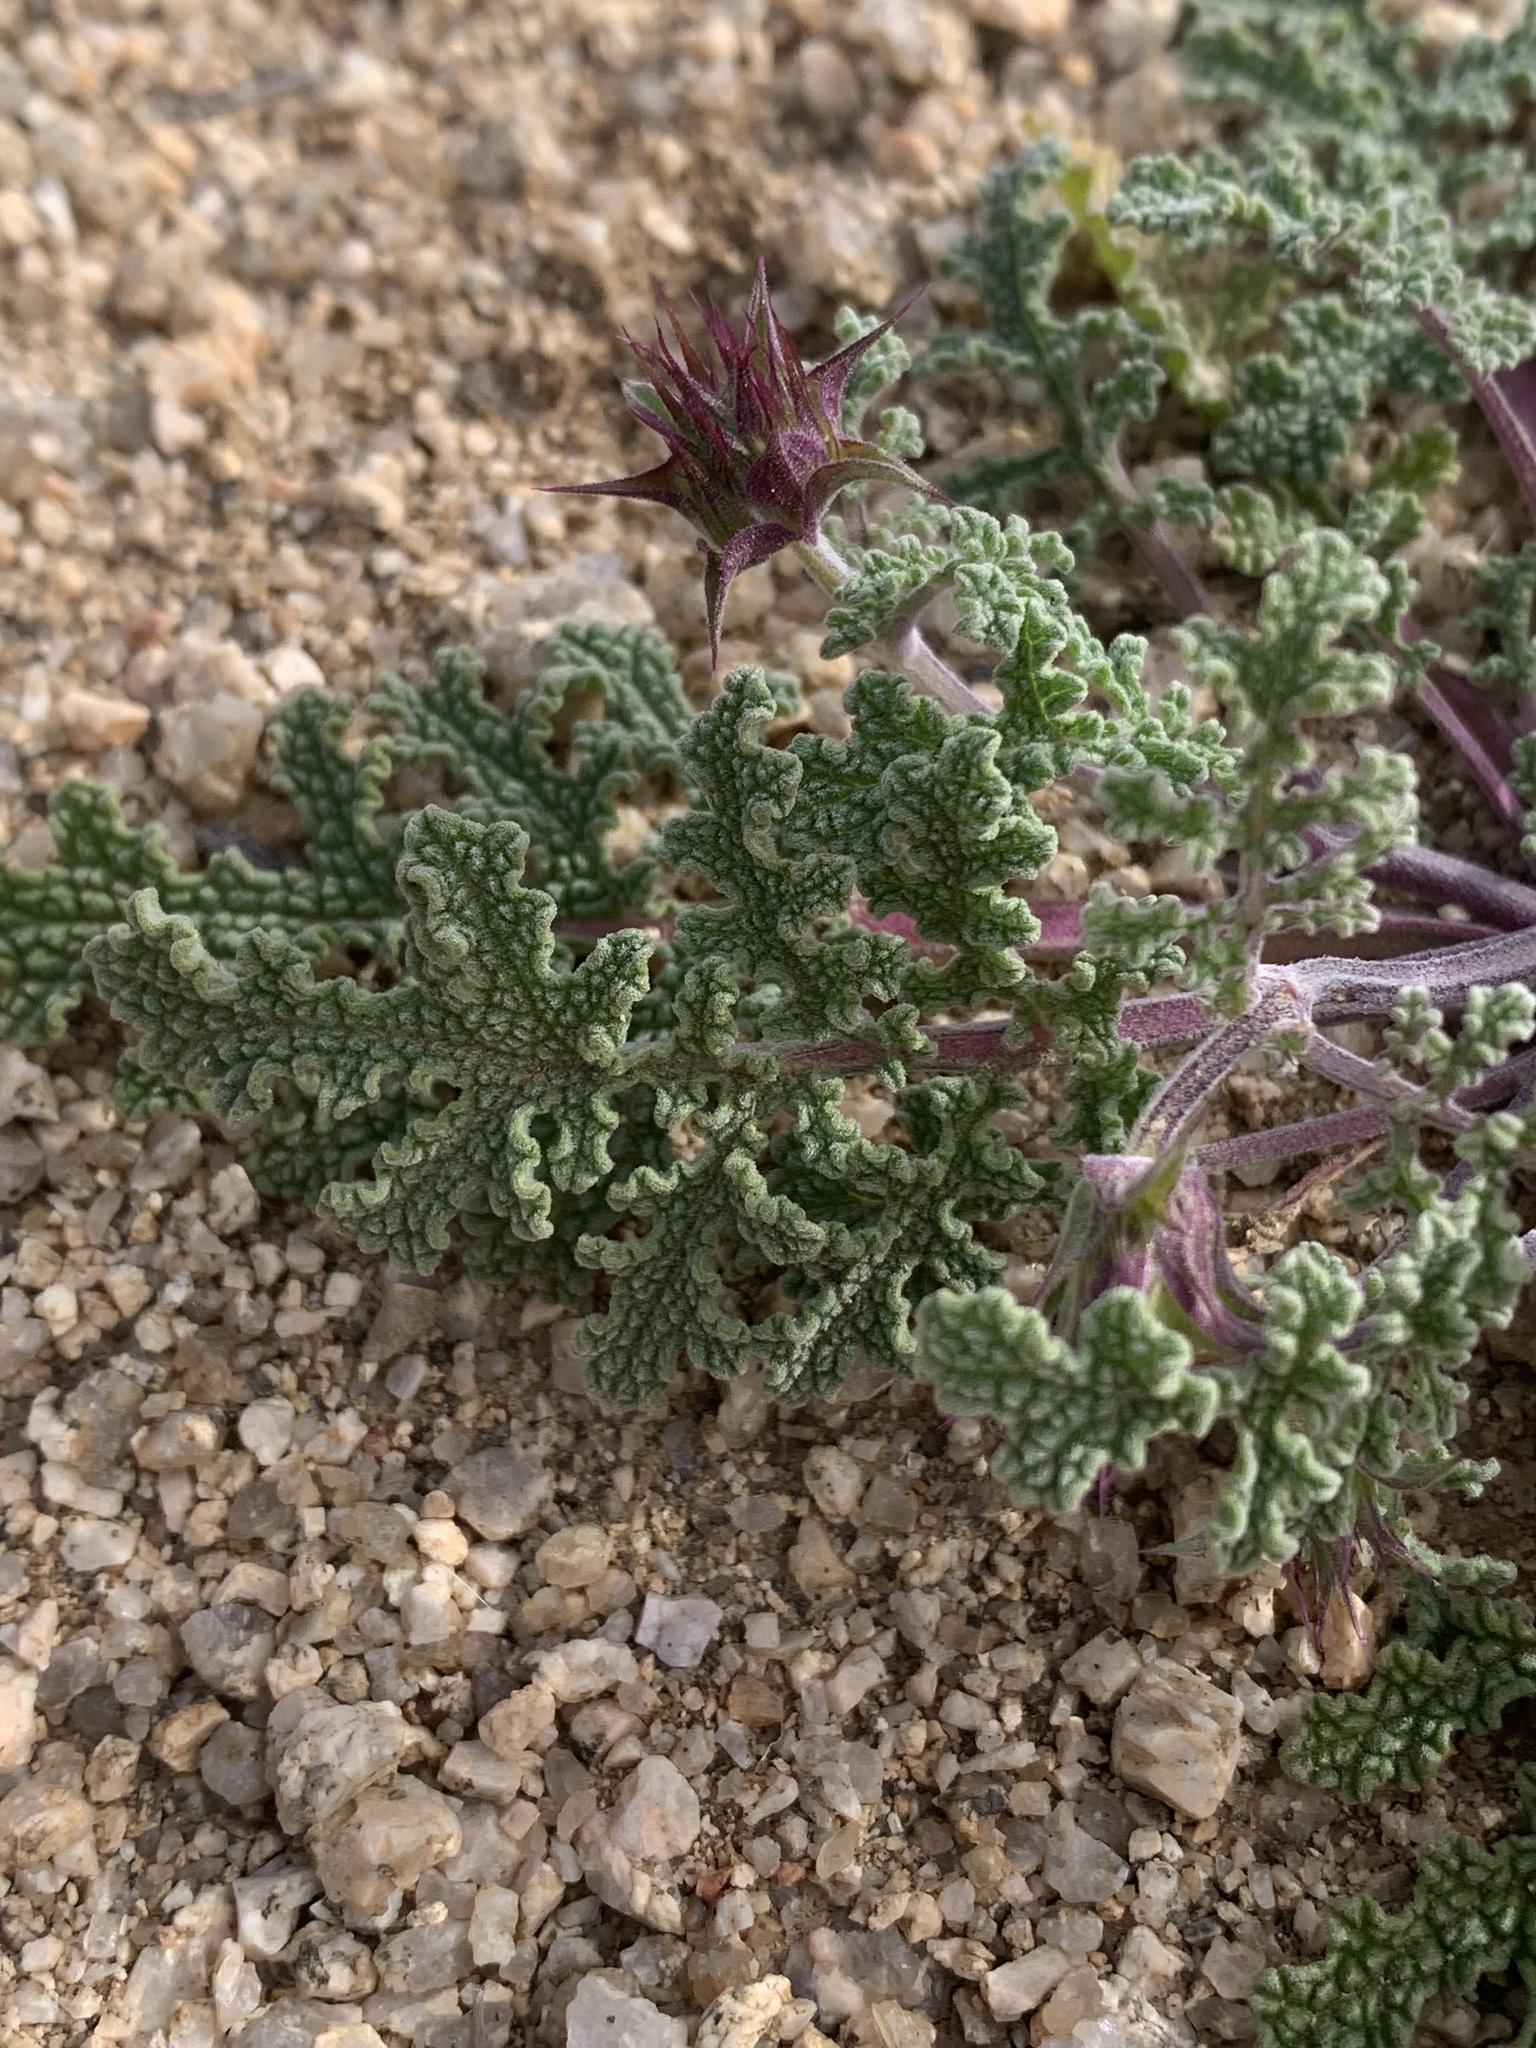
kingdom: Plantae
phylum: Tracheophyta
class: Magnoliopsida
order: Lamiales
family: Lamiaceae
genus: Salvia
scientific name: Salvia columbariae
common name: Chia
